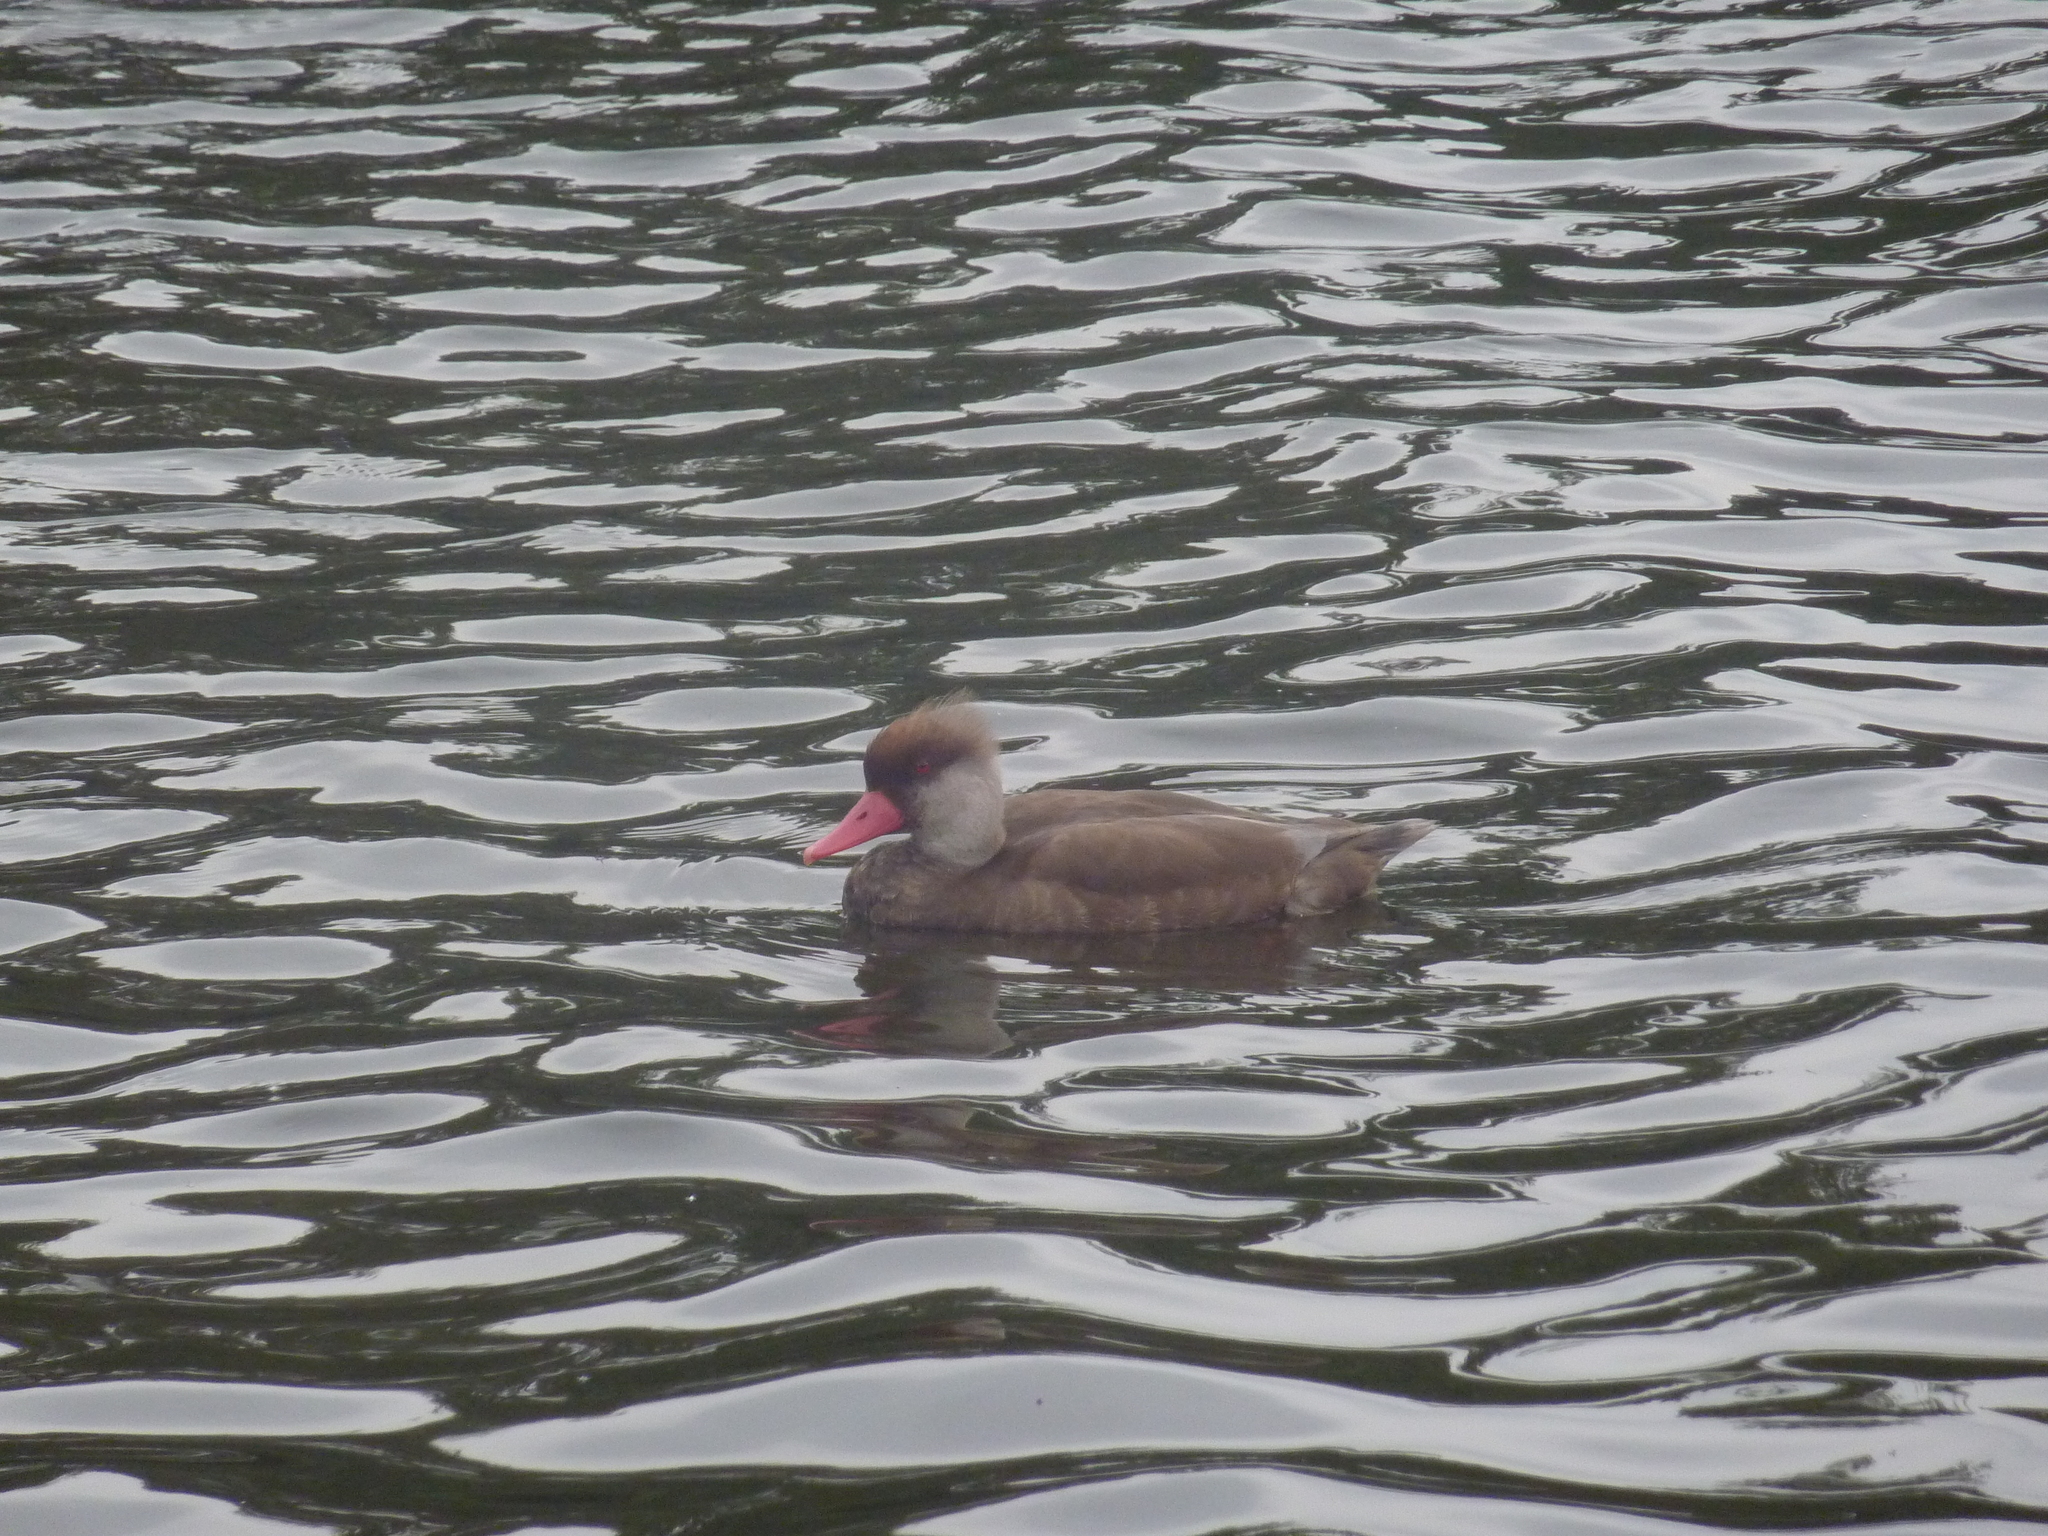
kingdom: Animalia
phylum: Chordata
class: Aves
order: Anseriformes
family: Anatidae
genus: Netta
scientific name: Netta rufina
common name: Red-crested pochard
